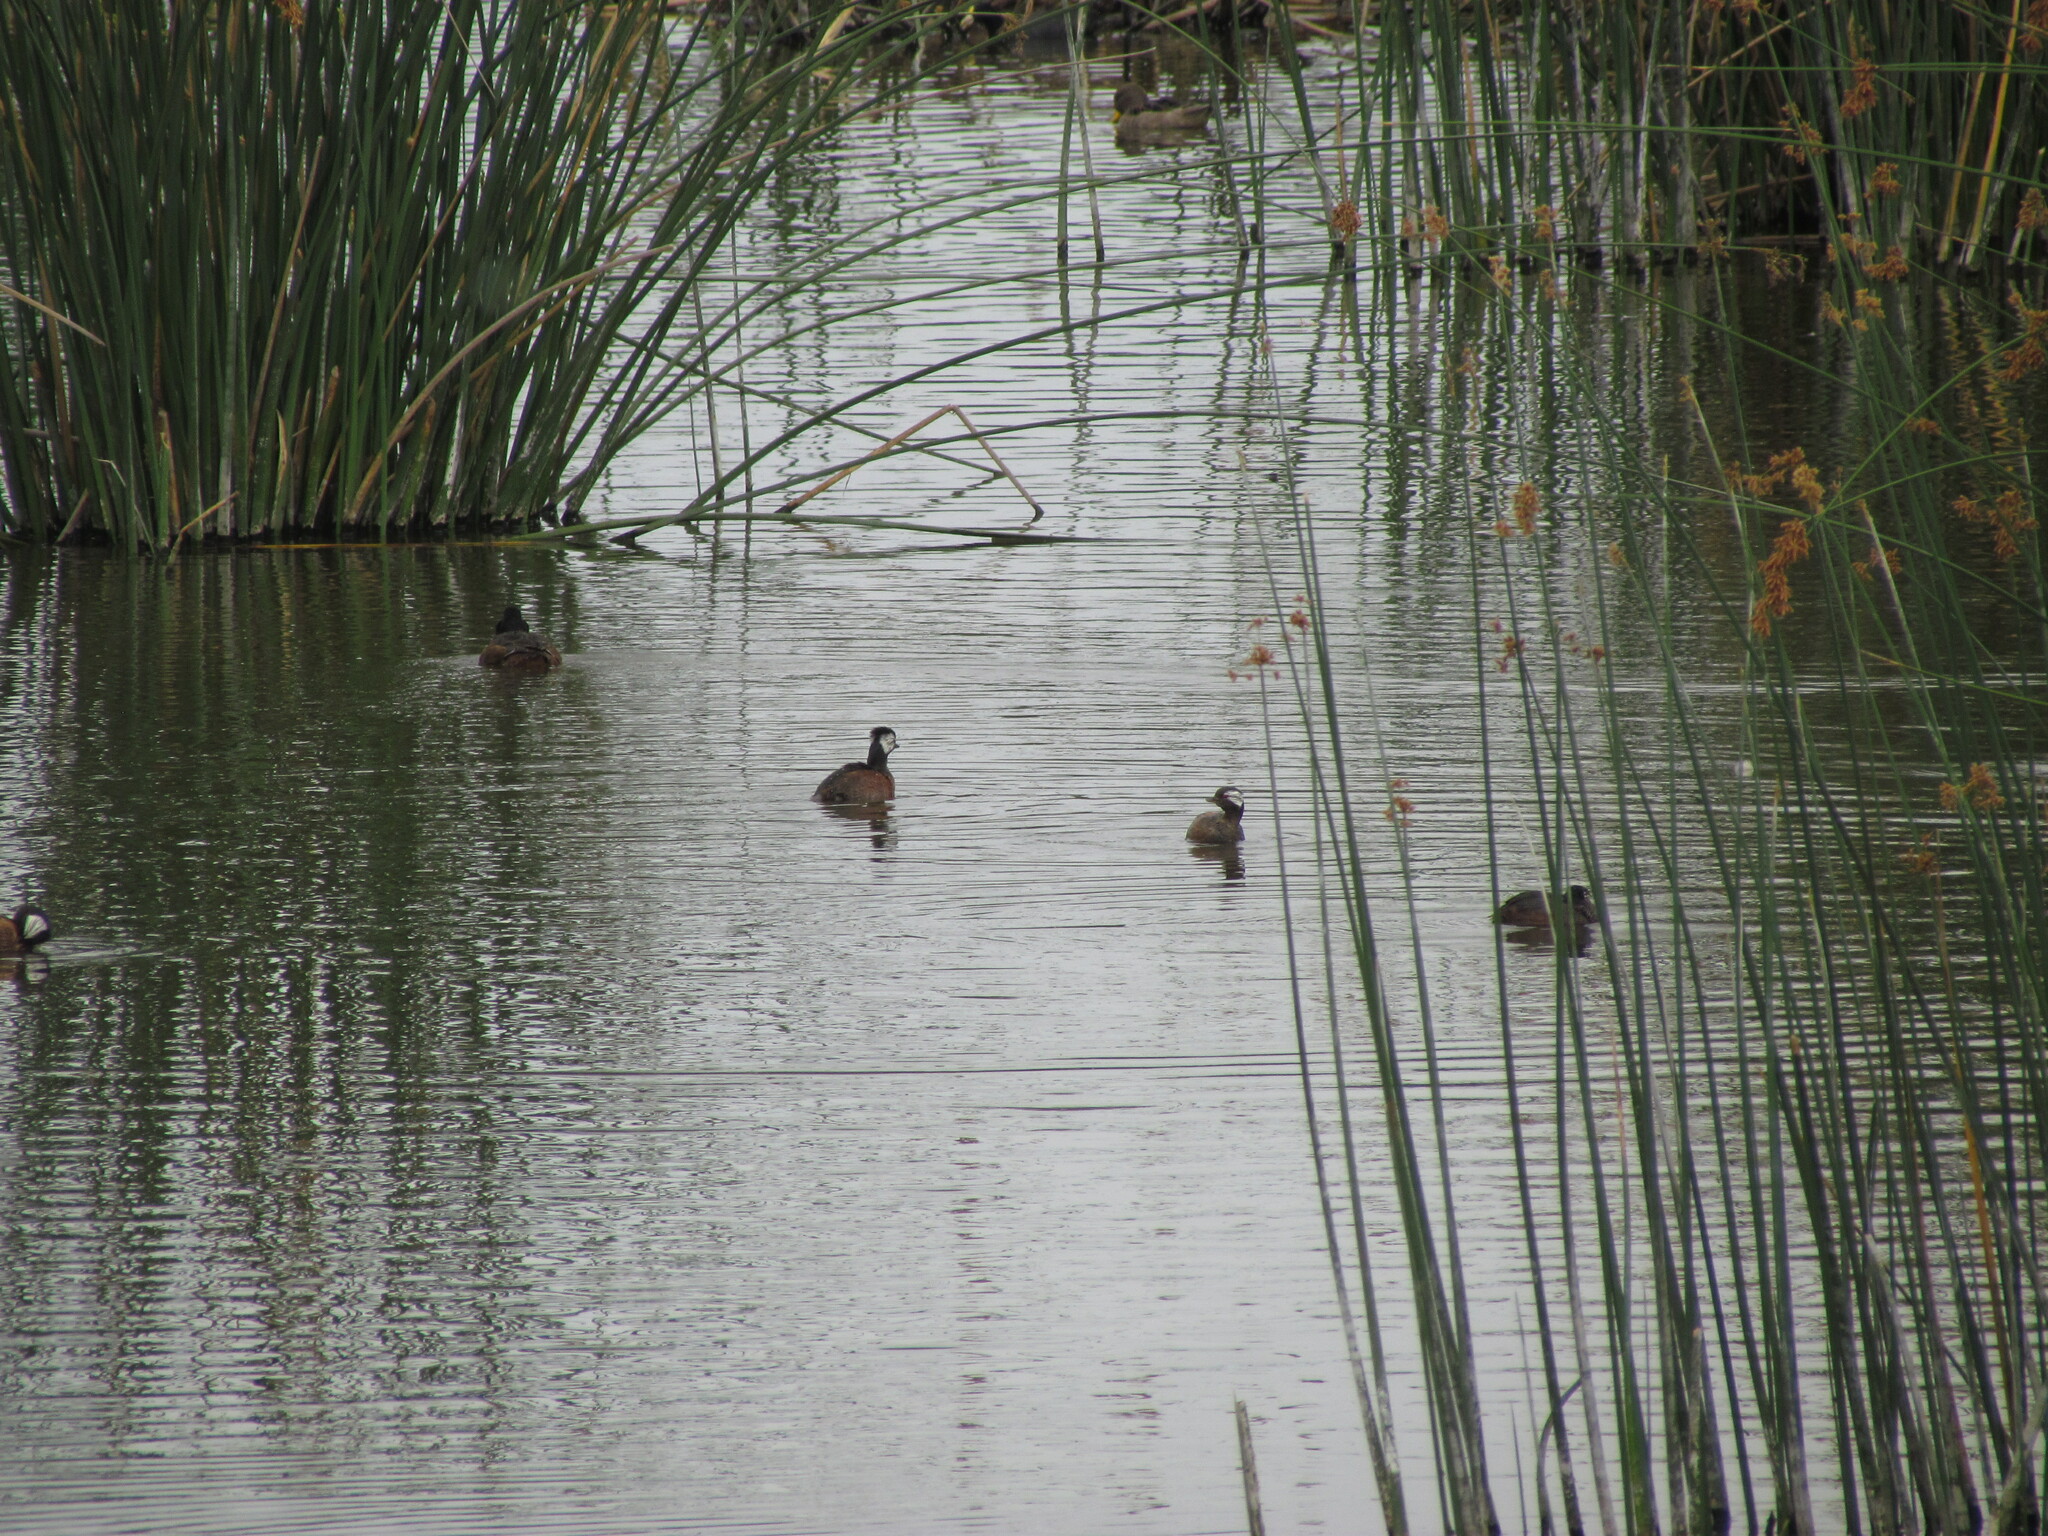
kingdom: Animalia
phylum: Chordata
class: Aves
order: Podicipediformes
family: Podicipedidae
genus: Rollandia
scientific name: Rollandia rolland
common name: White-tufted grebe
